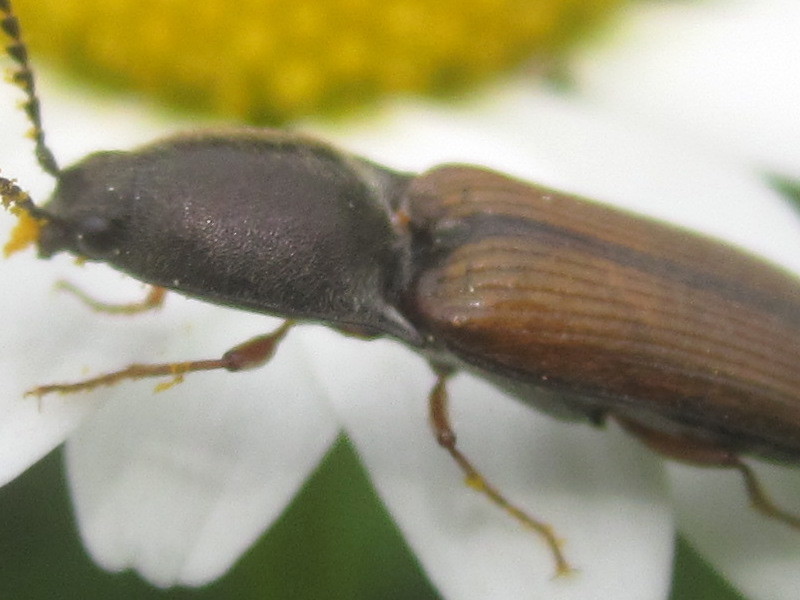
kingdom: Animalia
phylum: Arthropoda
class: Insecta
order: Coleoptera
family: Elateridae
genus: Corymbitodes
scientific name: Corymbitodes tarsalis
